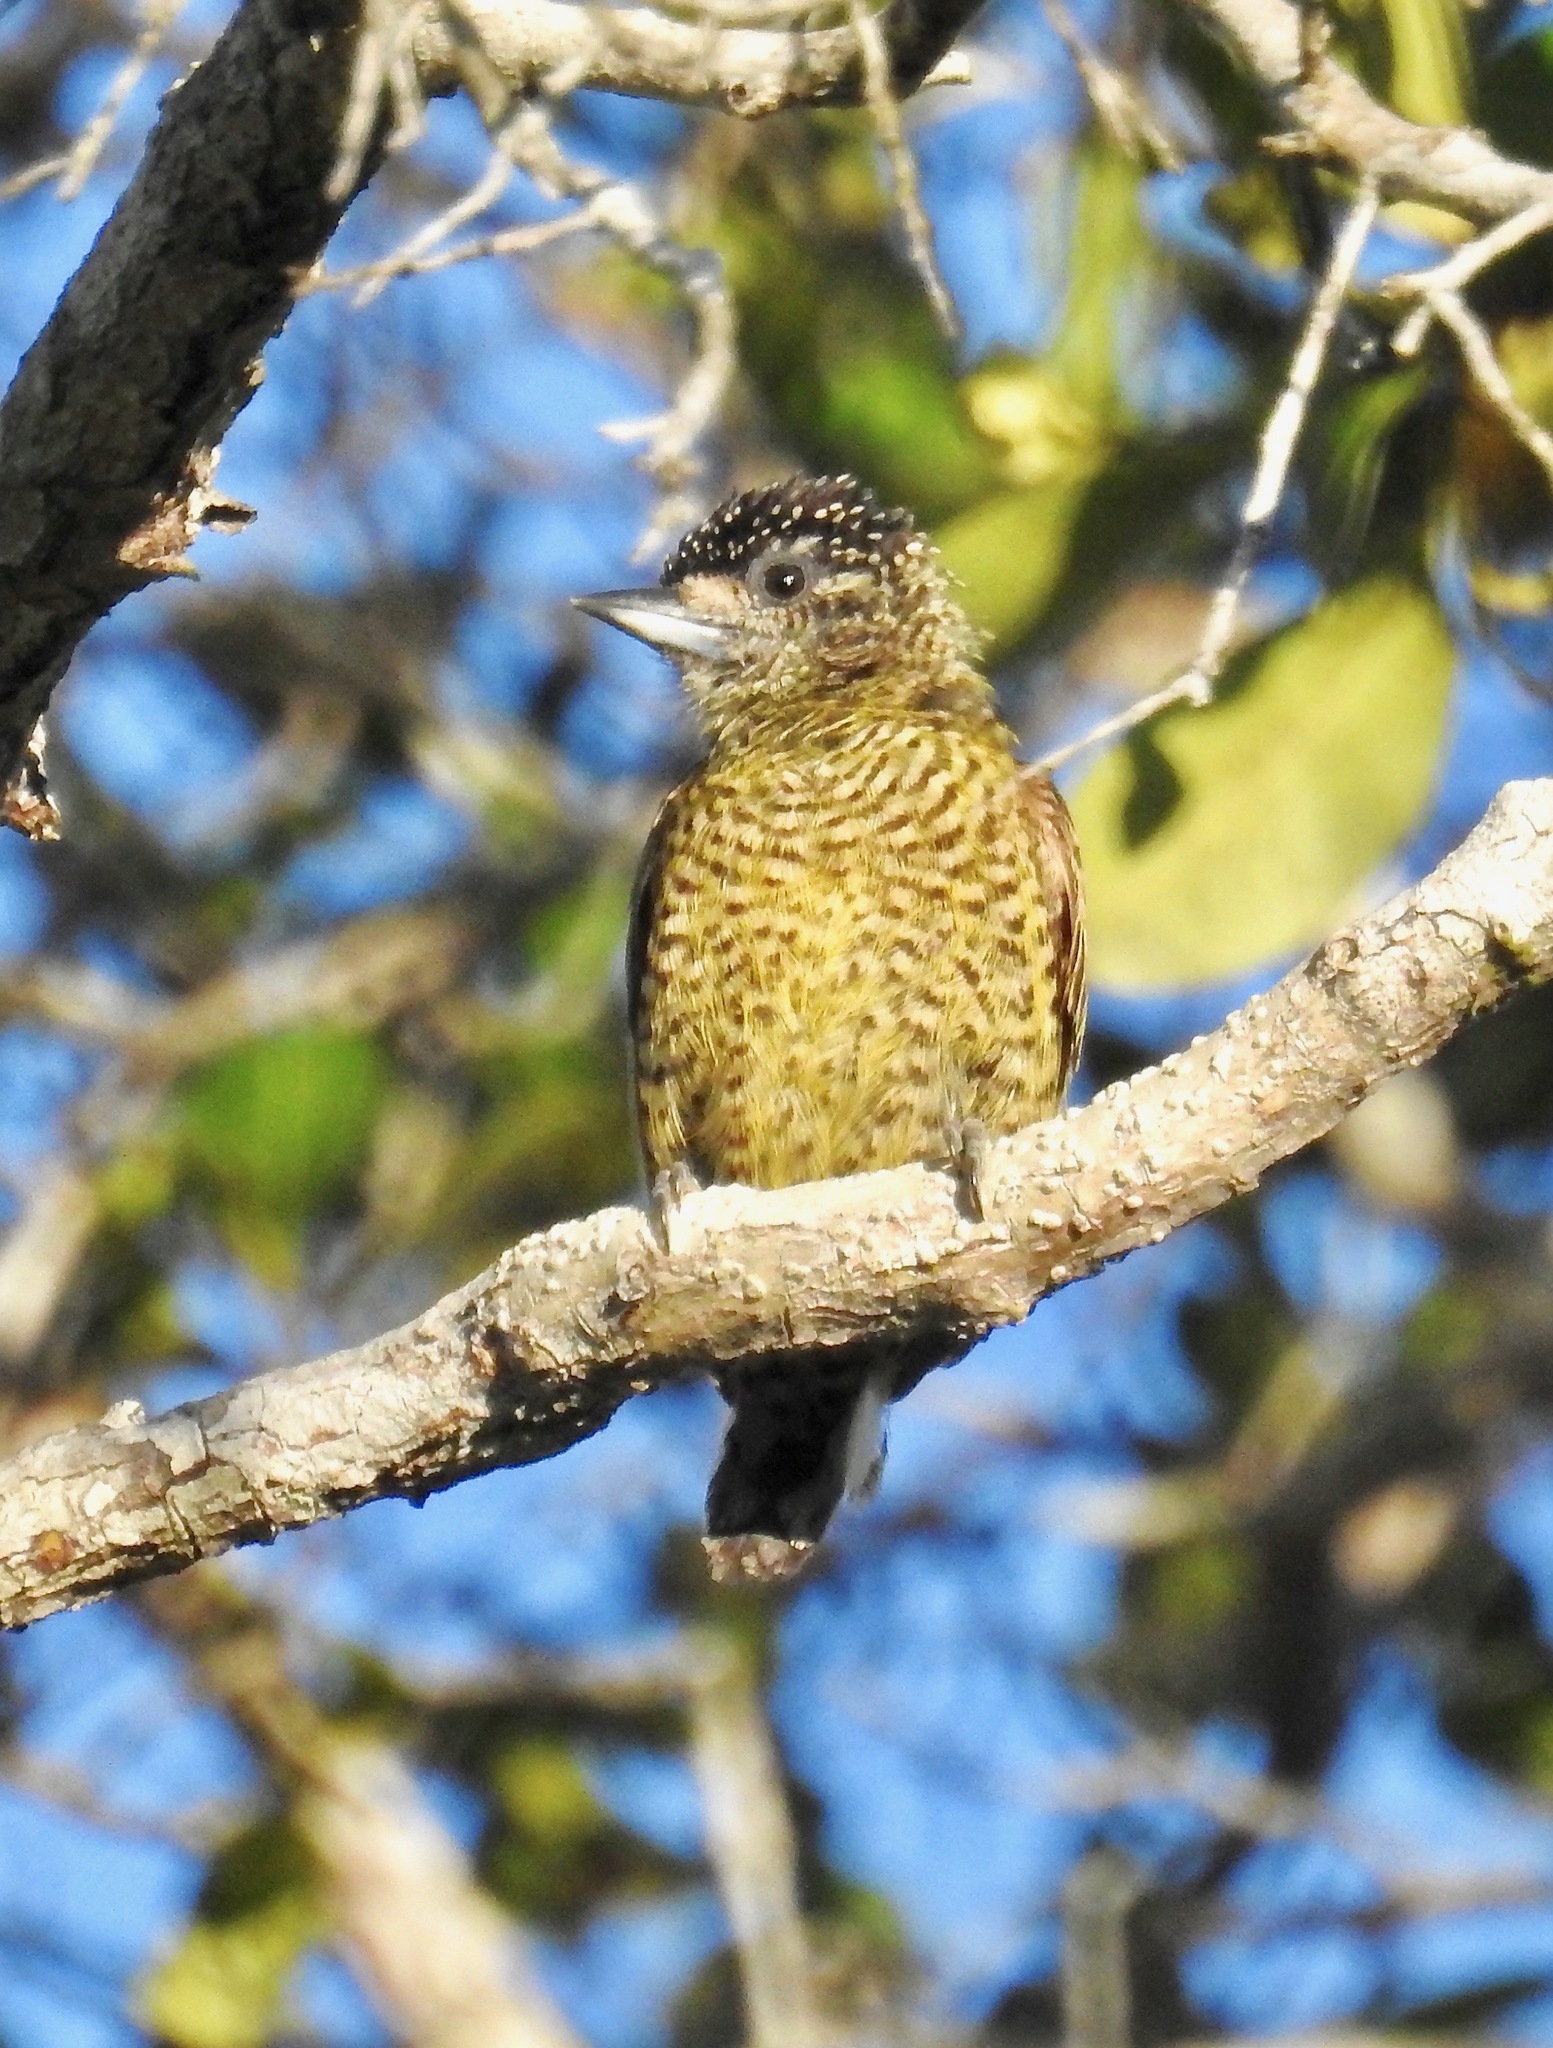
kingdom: Animalia
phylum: Chordata
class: Aves
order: Piciformes
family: Picidae
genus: Picumnus
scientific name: Picumnus exilis
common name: Golden-spangled piculet
